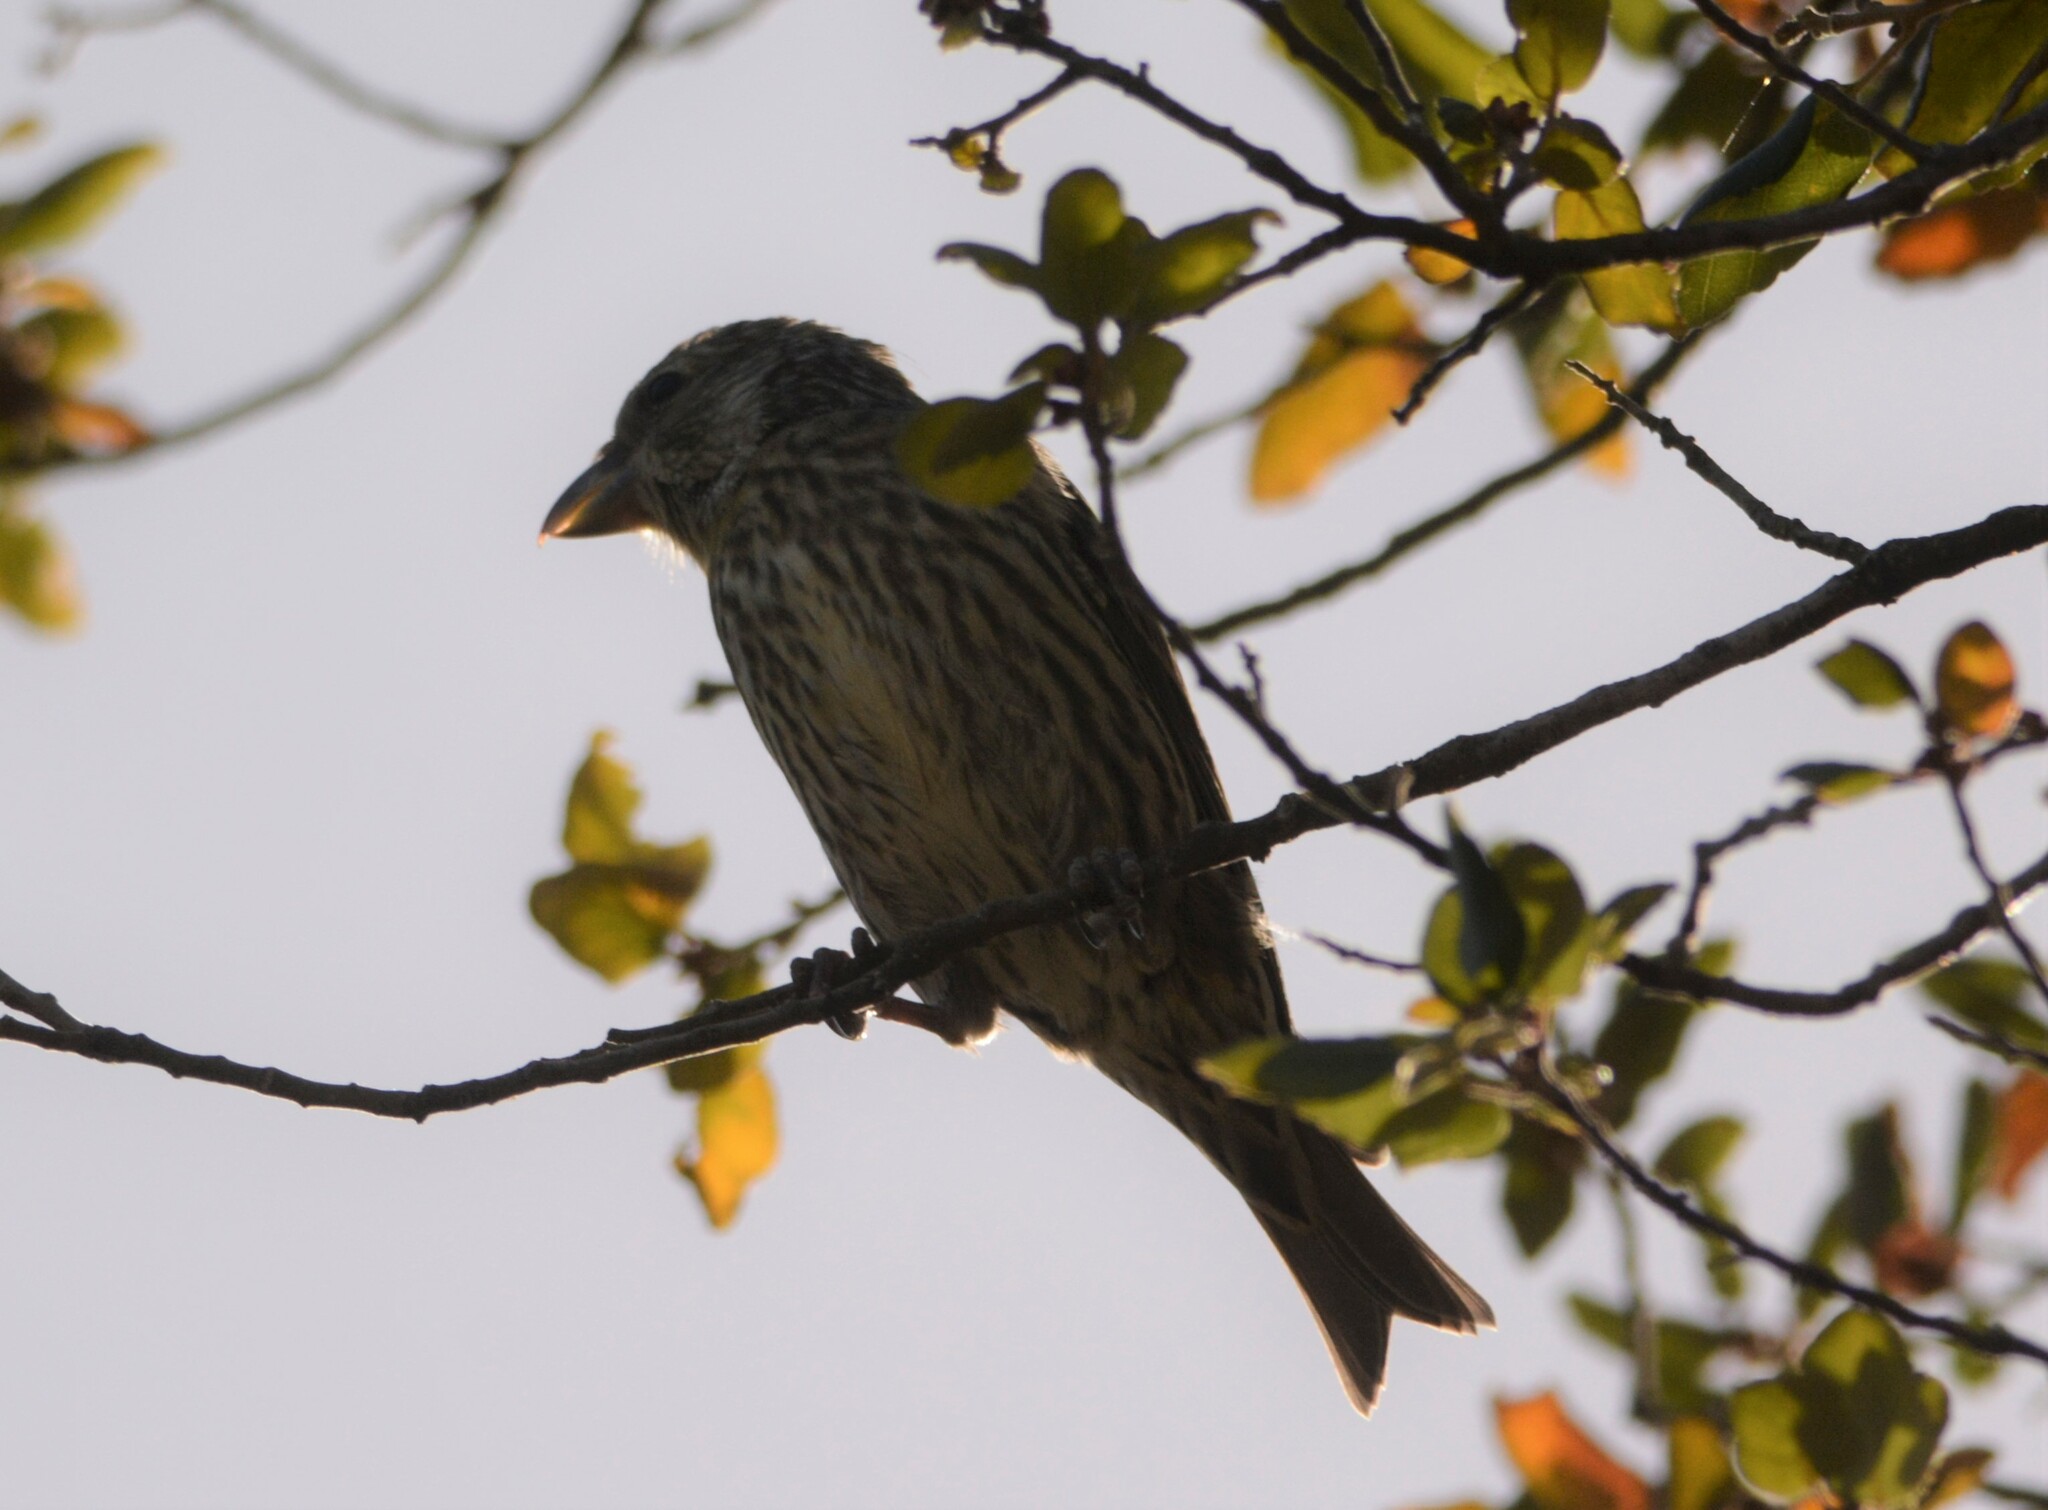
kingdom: Animalia
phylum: Chordata
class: Aves
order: Passeriformes
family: Fringillidae
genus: Loxia
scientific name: Loxia curvirostra
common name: Red crossbill
